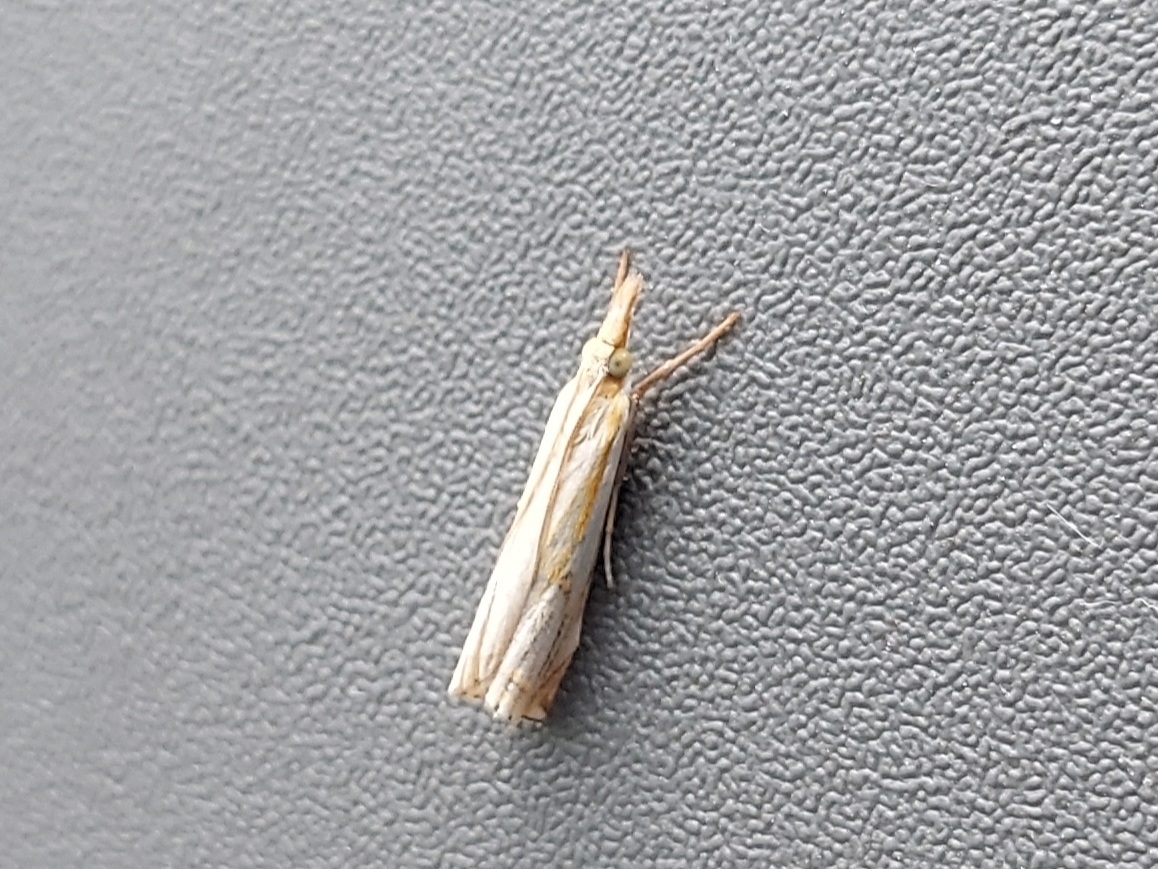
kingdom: Animalia
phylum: Arthropoda
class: Insecta
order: Lepidoptera
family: Crambidae
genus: Crambus
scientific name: Crambus agitatellus
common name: Double-banded grass-veneer
